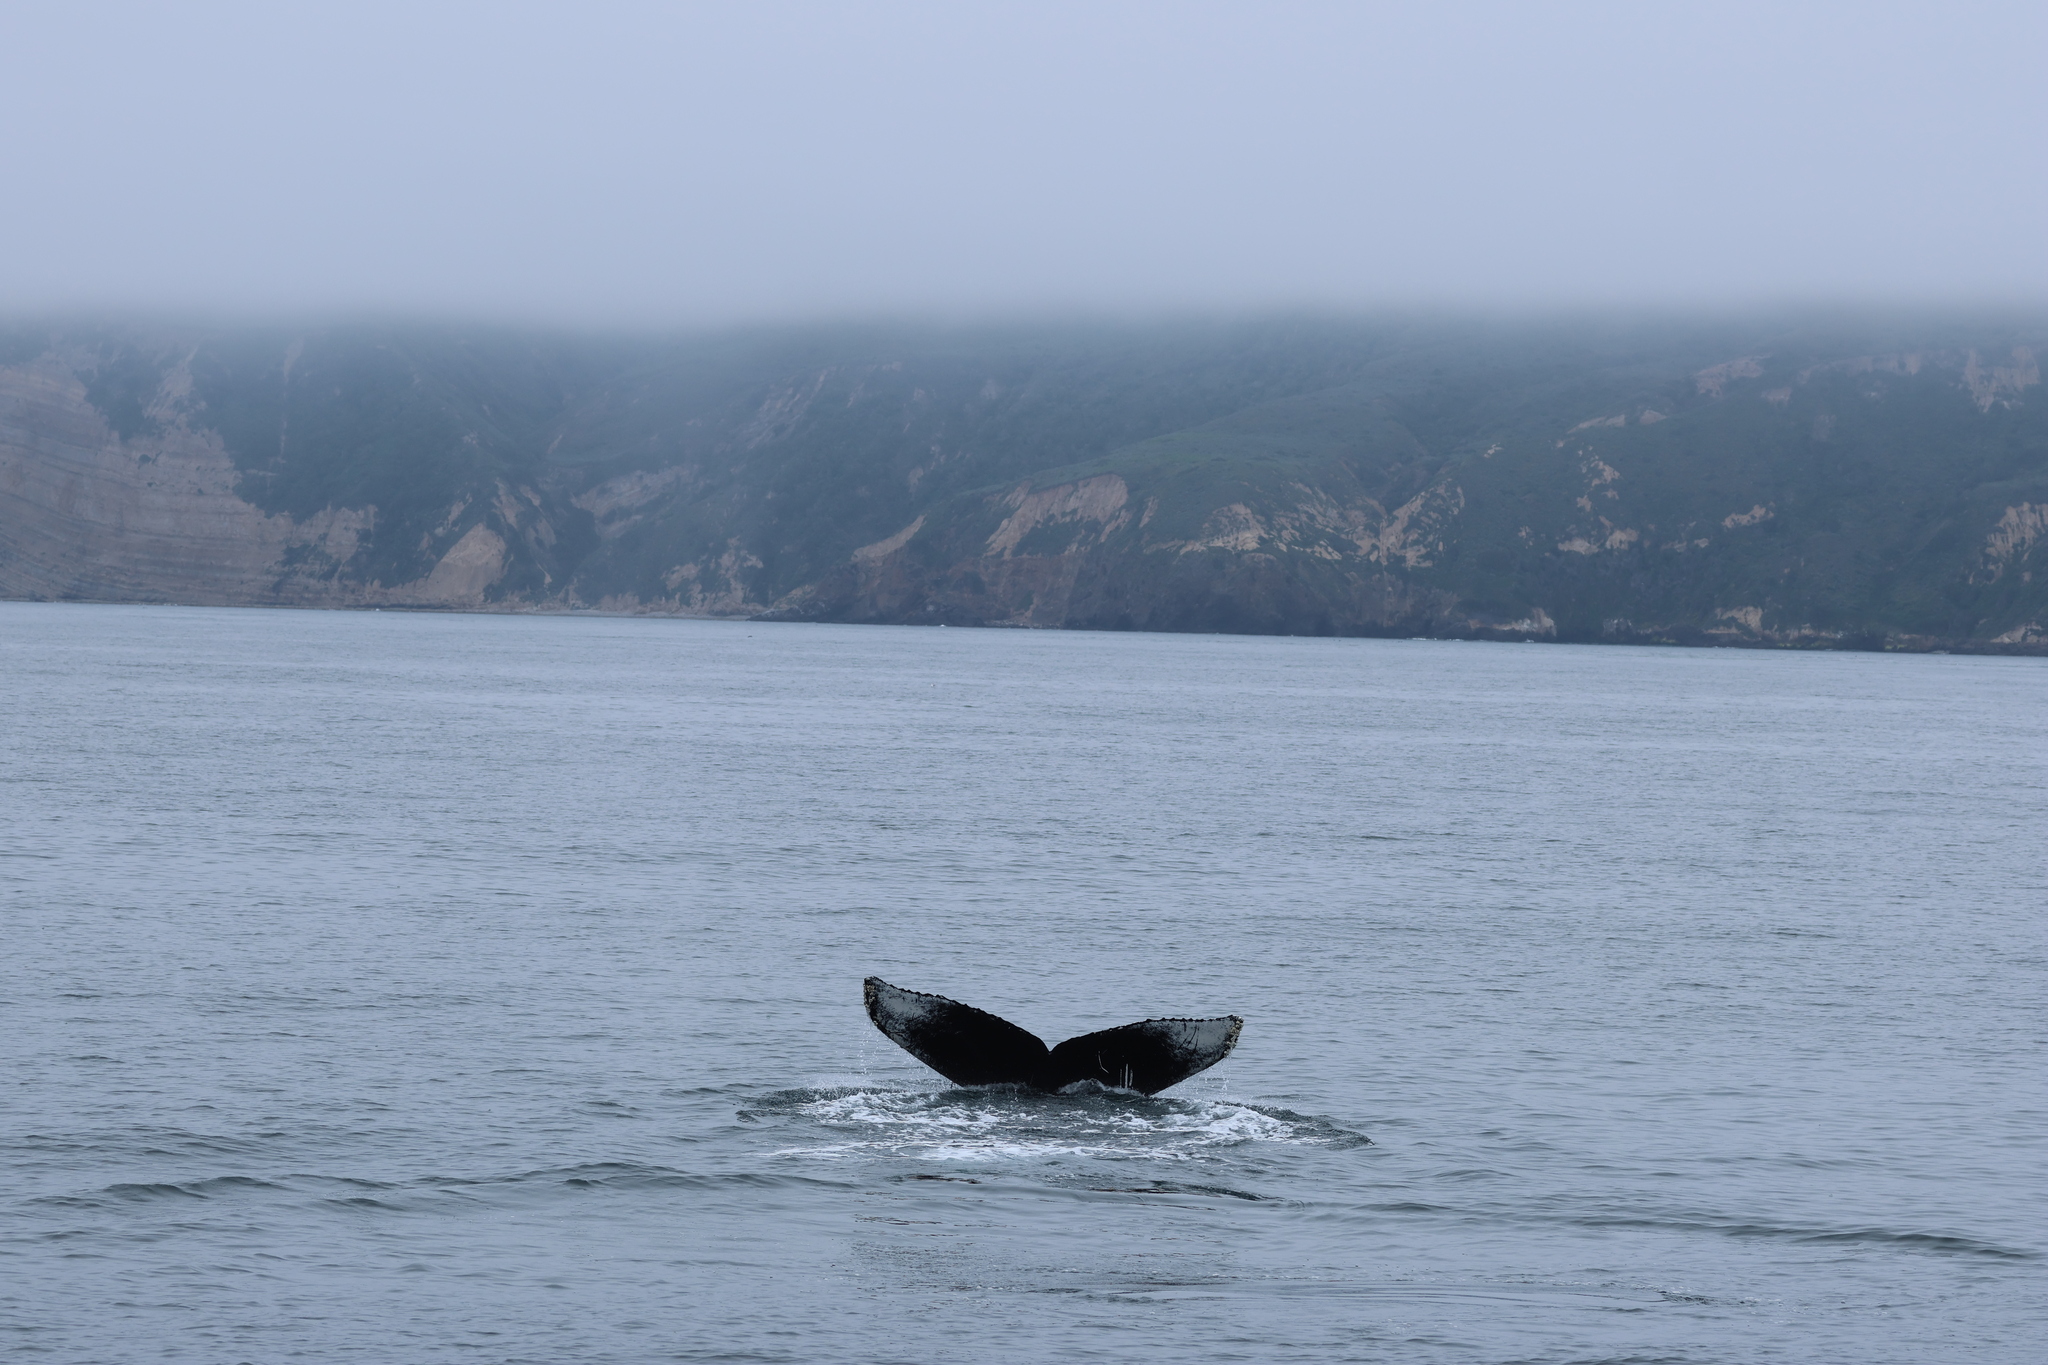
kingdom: Animalia
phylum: Chordata
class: Mammalia
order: Cetacea
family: Balaenopteridae
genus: Megaptera
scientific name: Megaptera novaeangliae
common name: Humpback whale
